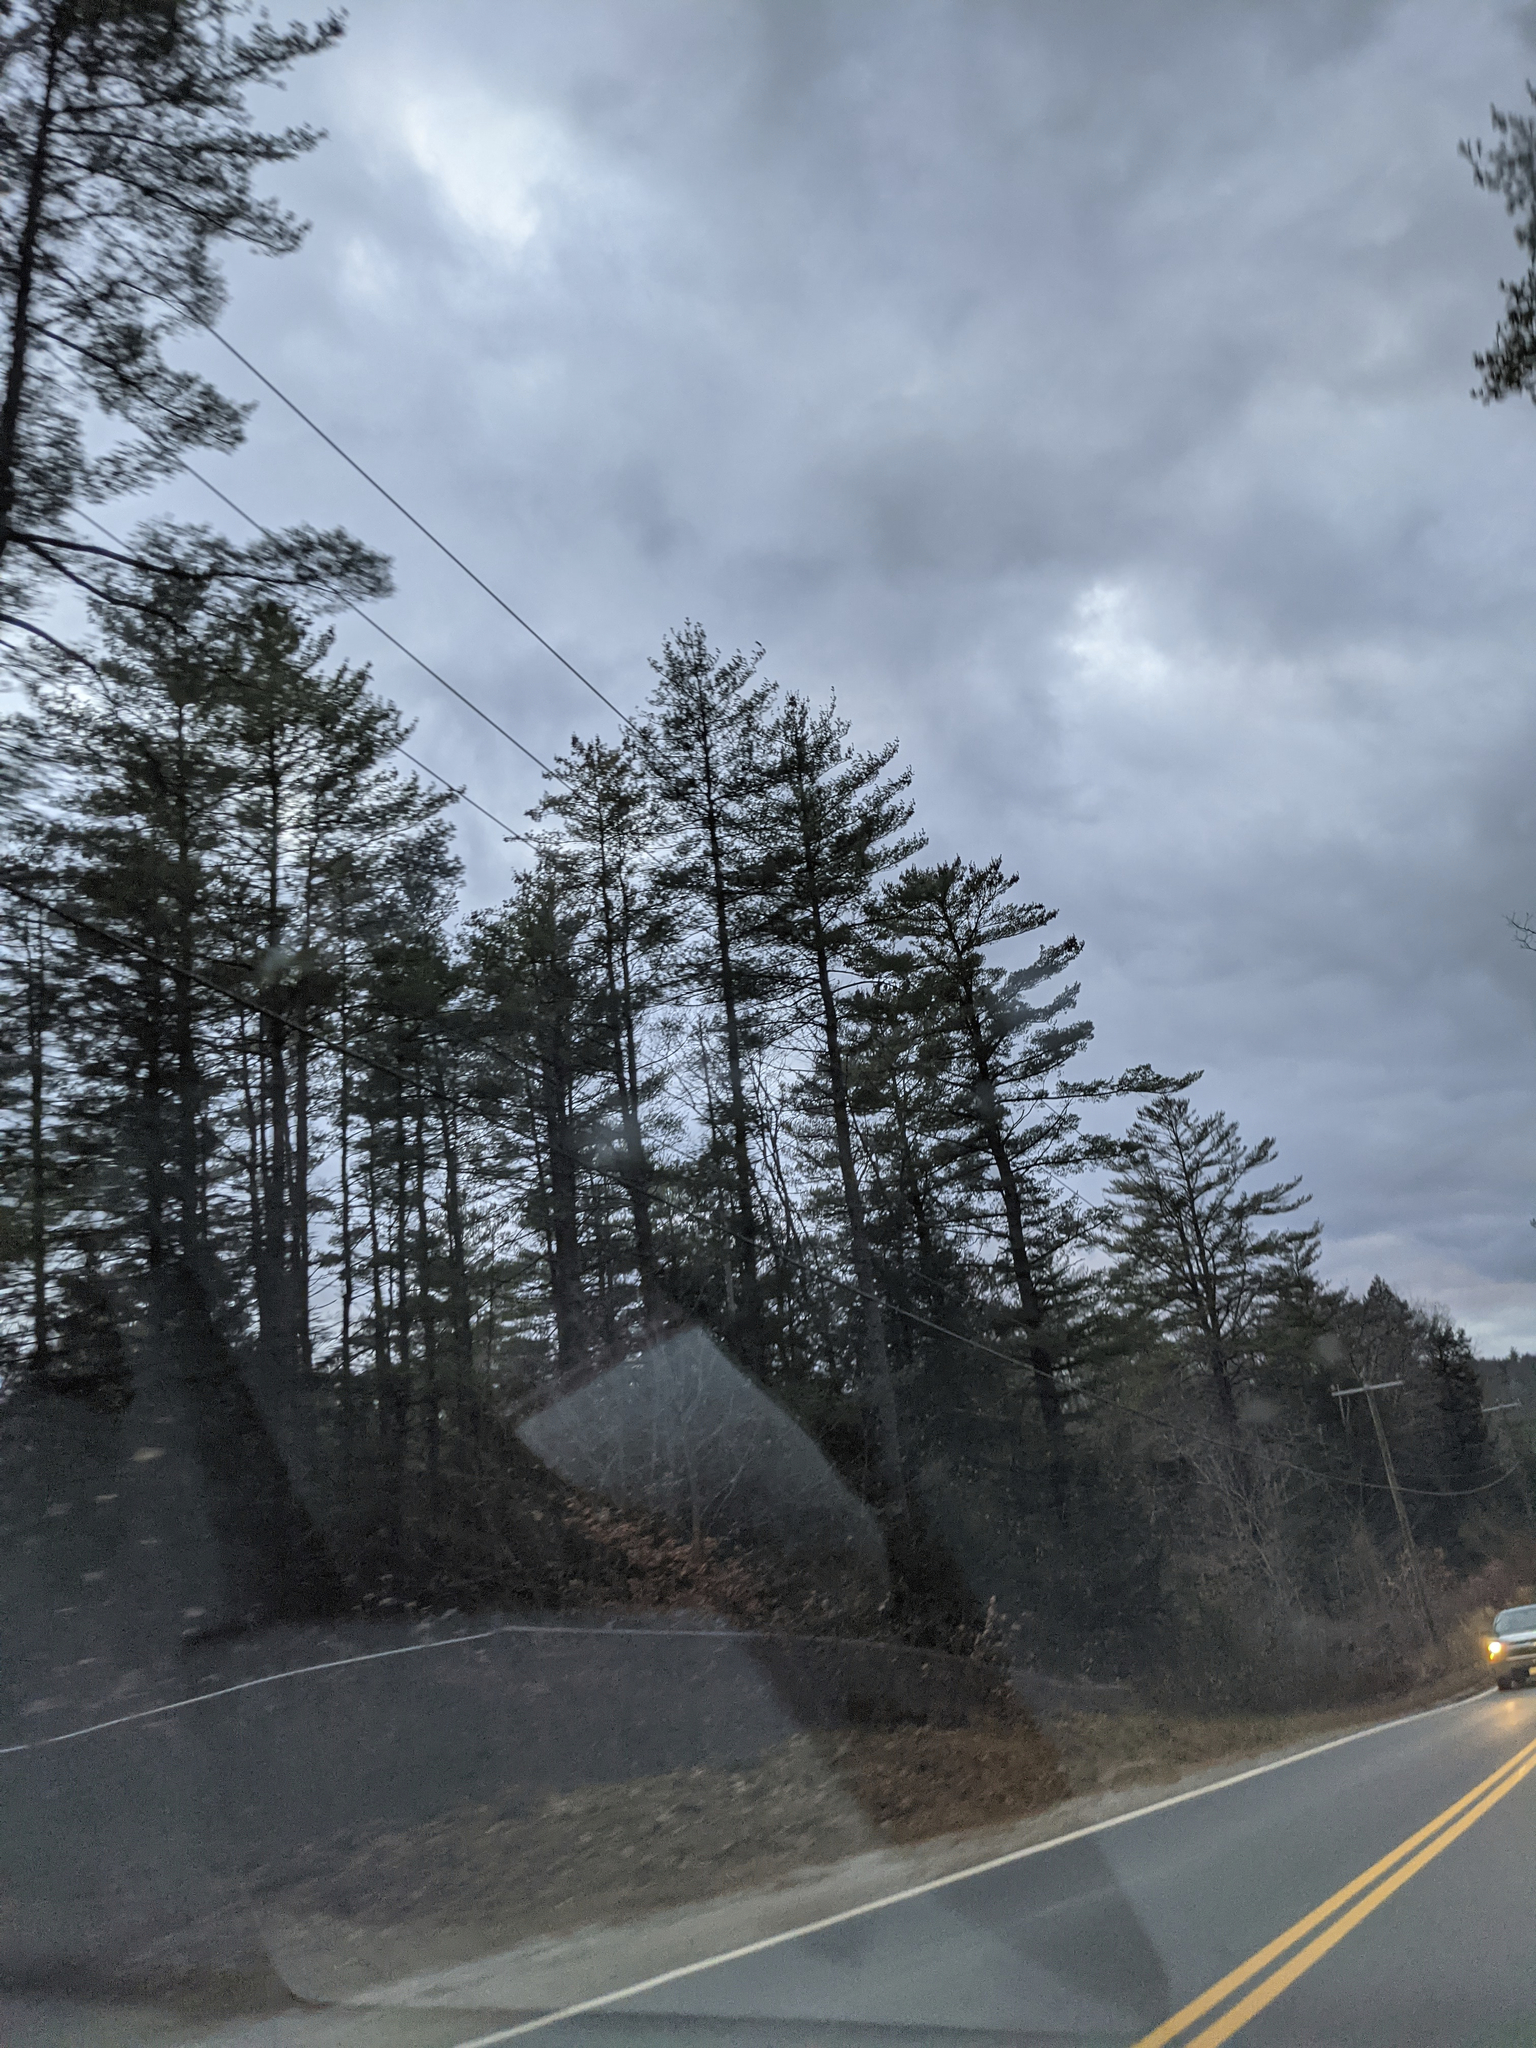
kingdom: Plantae
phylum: Tracheophyta
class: Pinopsida
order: Pinales
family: Pinaceae
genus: Pinus
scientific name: Pinus strobus
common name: Weymouth pine
